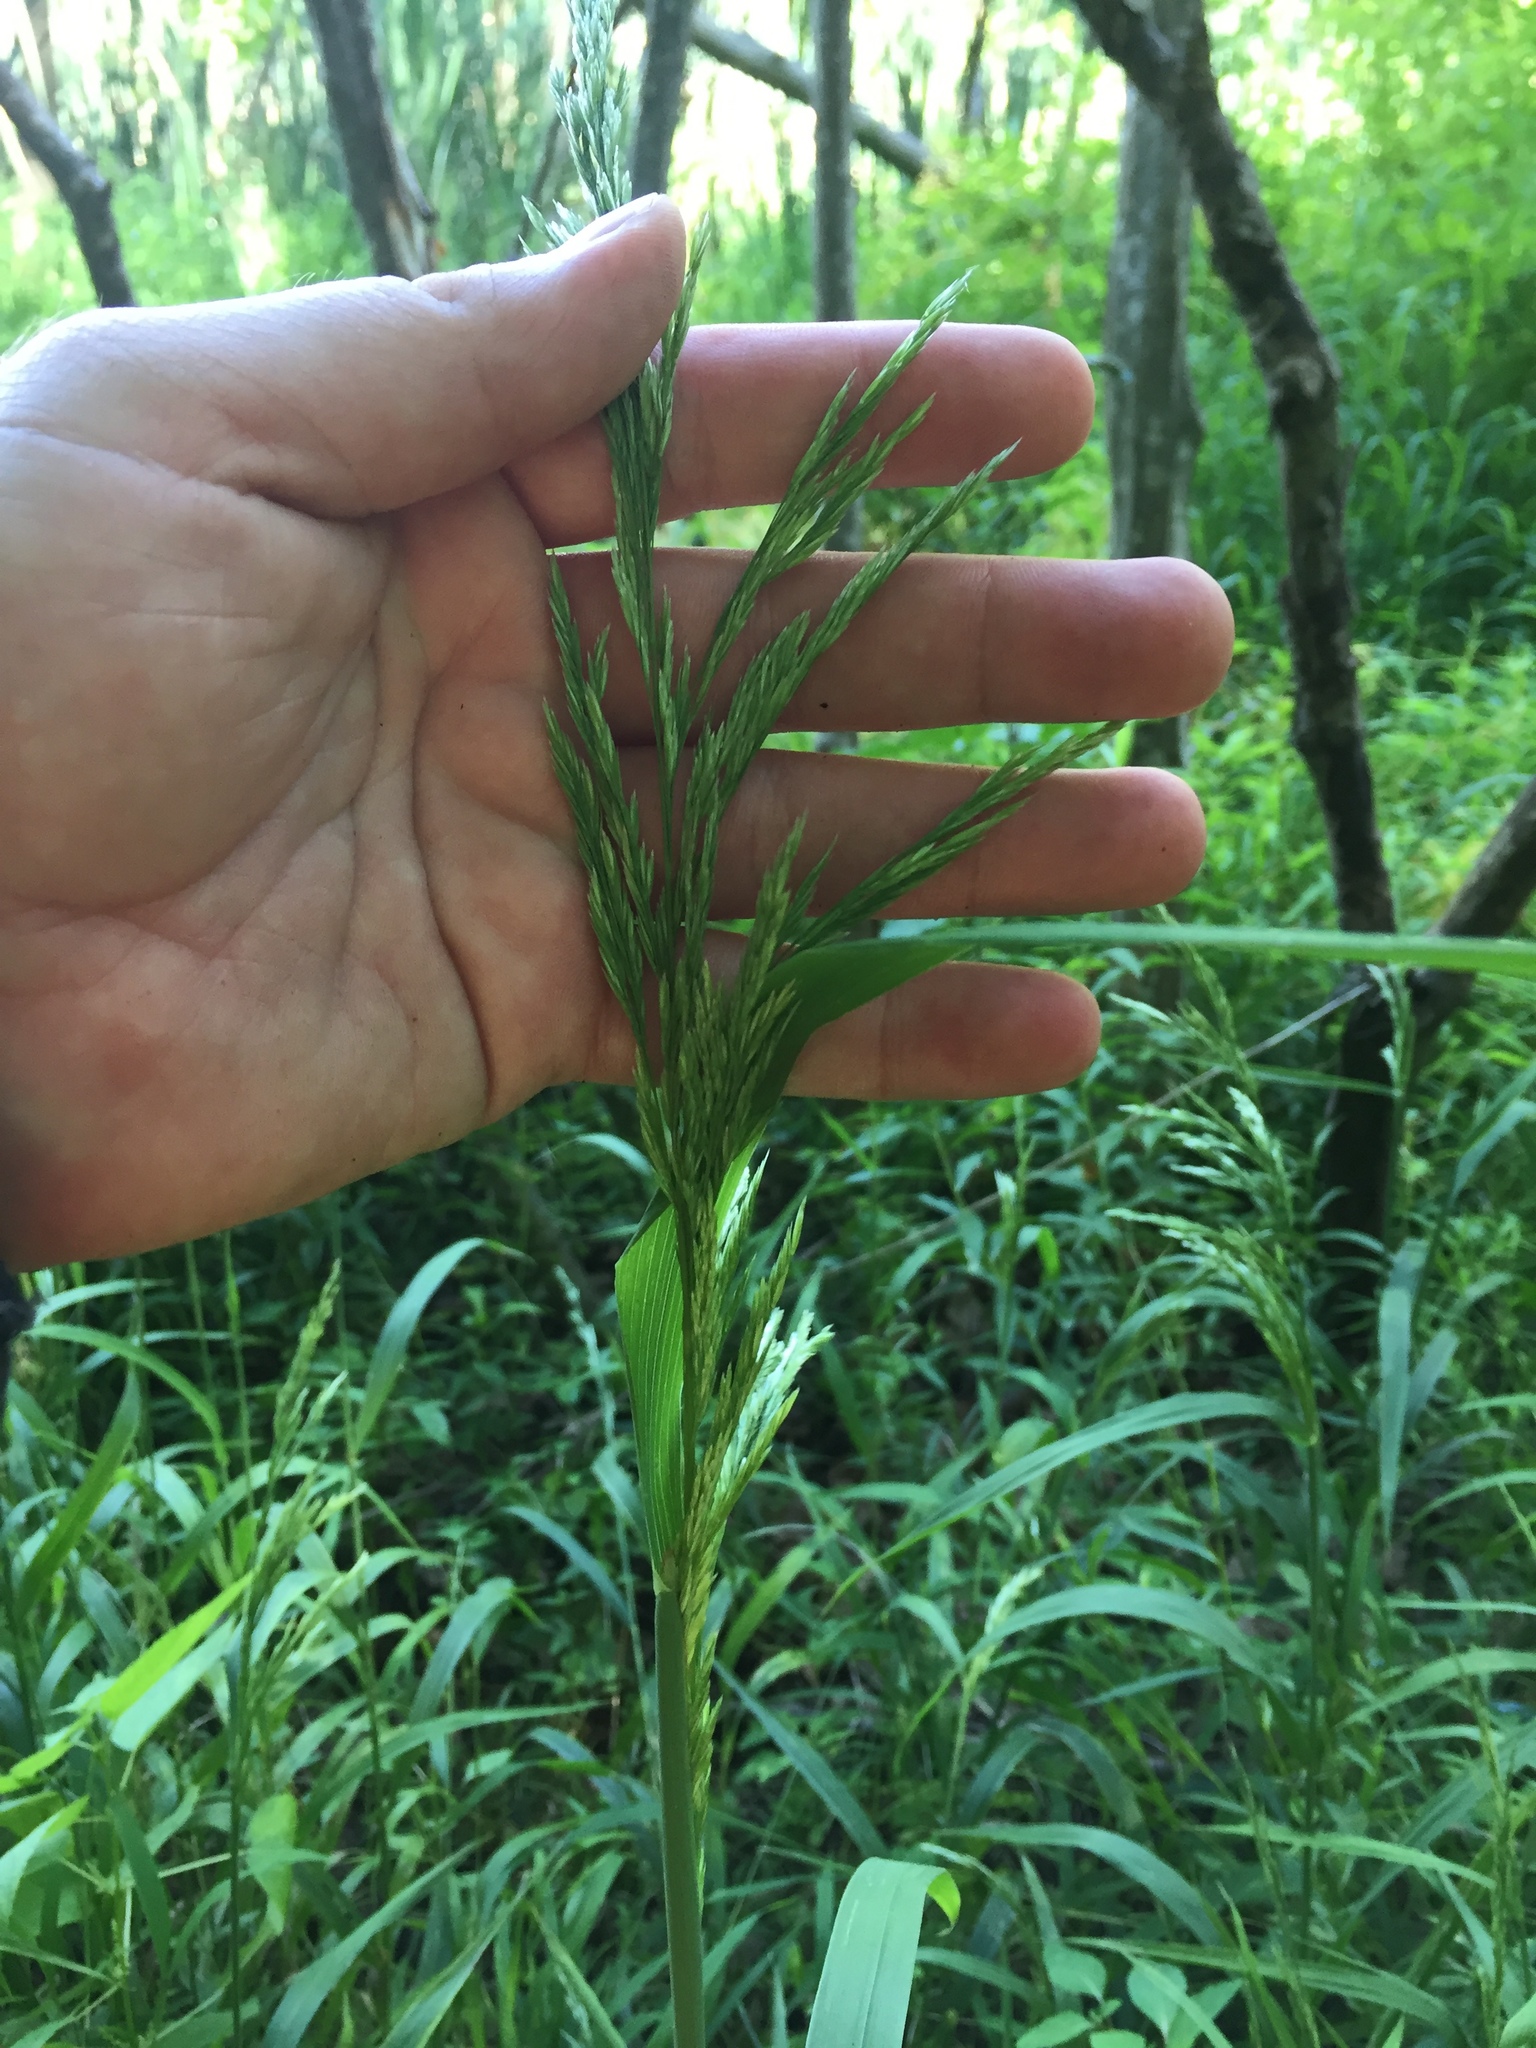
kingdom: Plantae
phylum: Tracheophyta
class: Liliopsida
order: Poales
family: Poaceae
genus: Cinna
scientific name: Cinna arundinacea
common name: Stout woodreed
